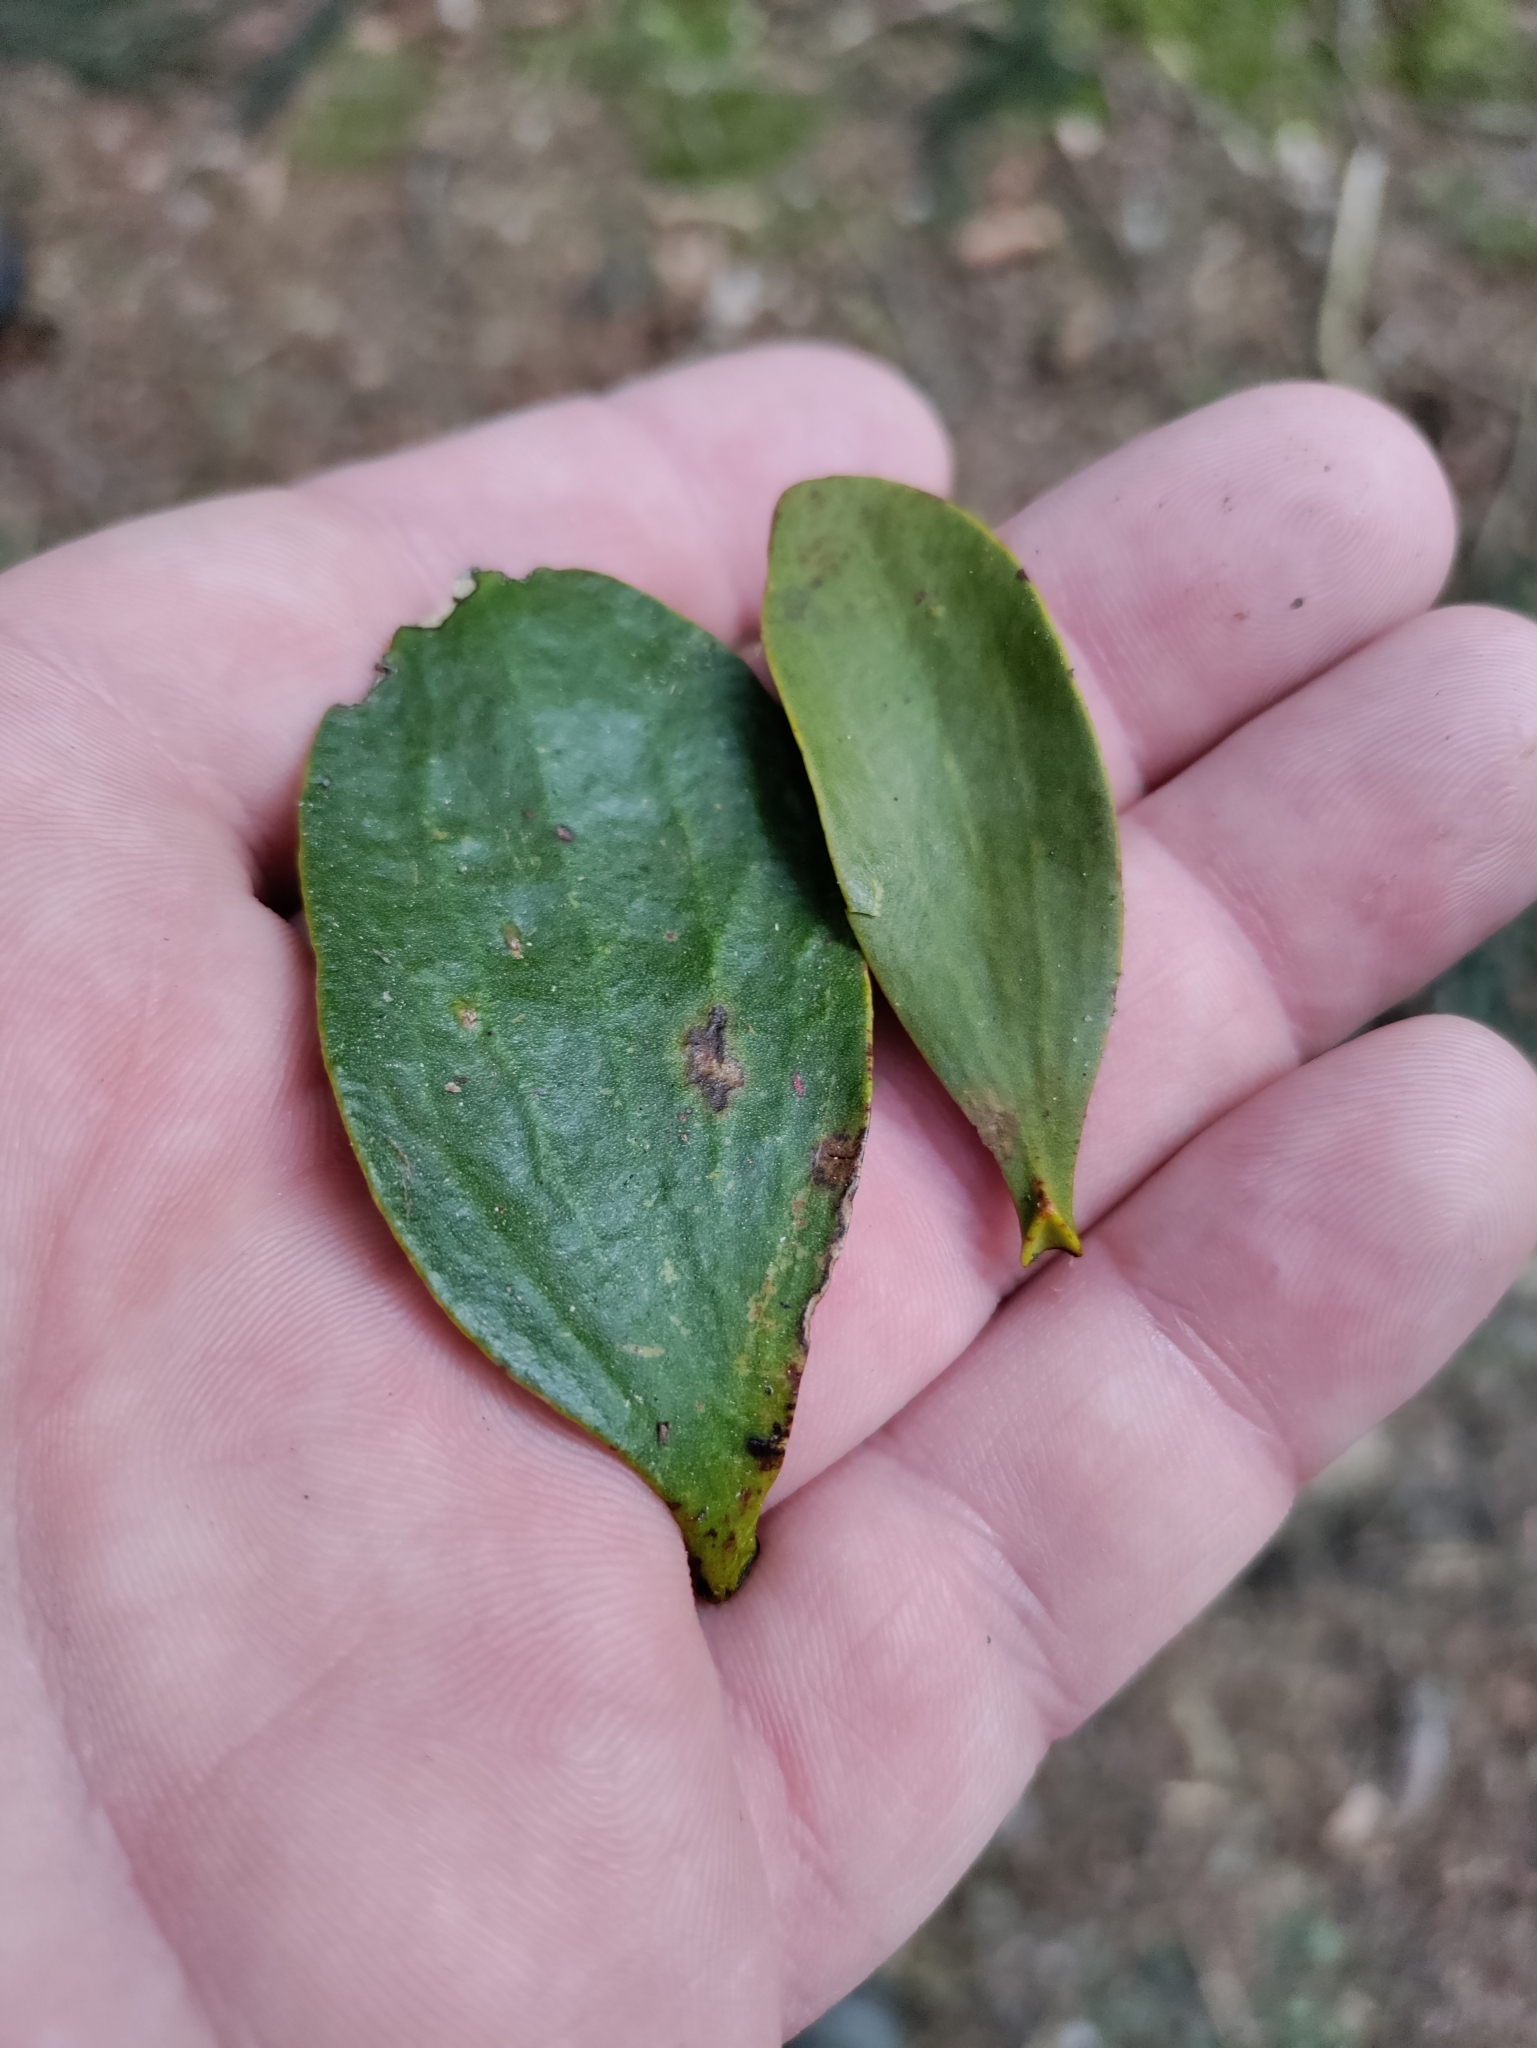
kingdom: Plantae
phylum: Tracheophyta
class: Magnoliopsida
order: Santalales
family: Viscaceae
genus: Viscum
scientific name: Viscum album
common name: Mistletoe
